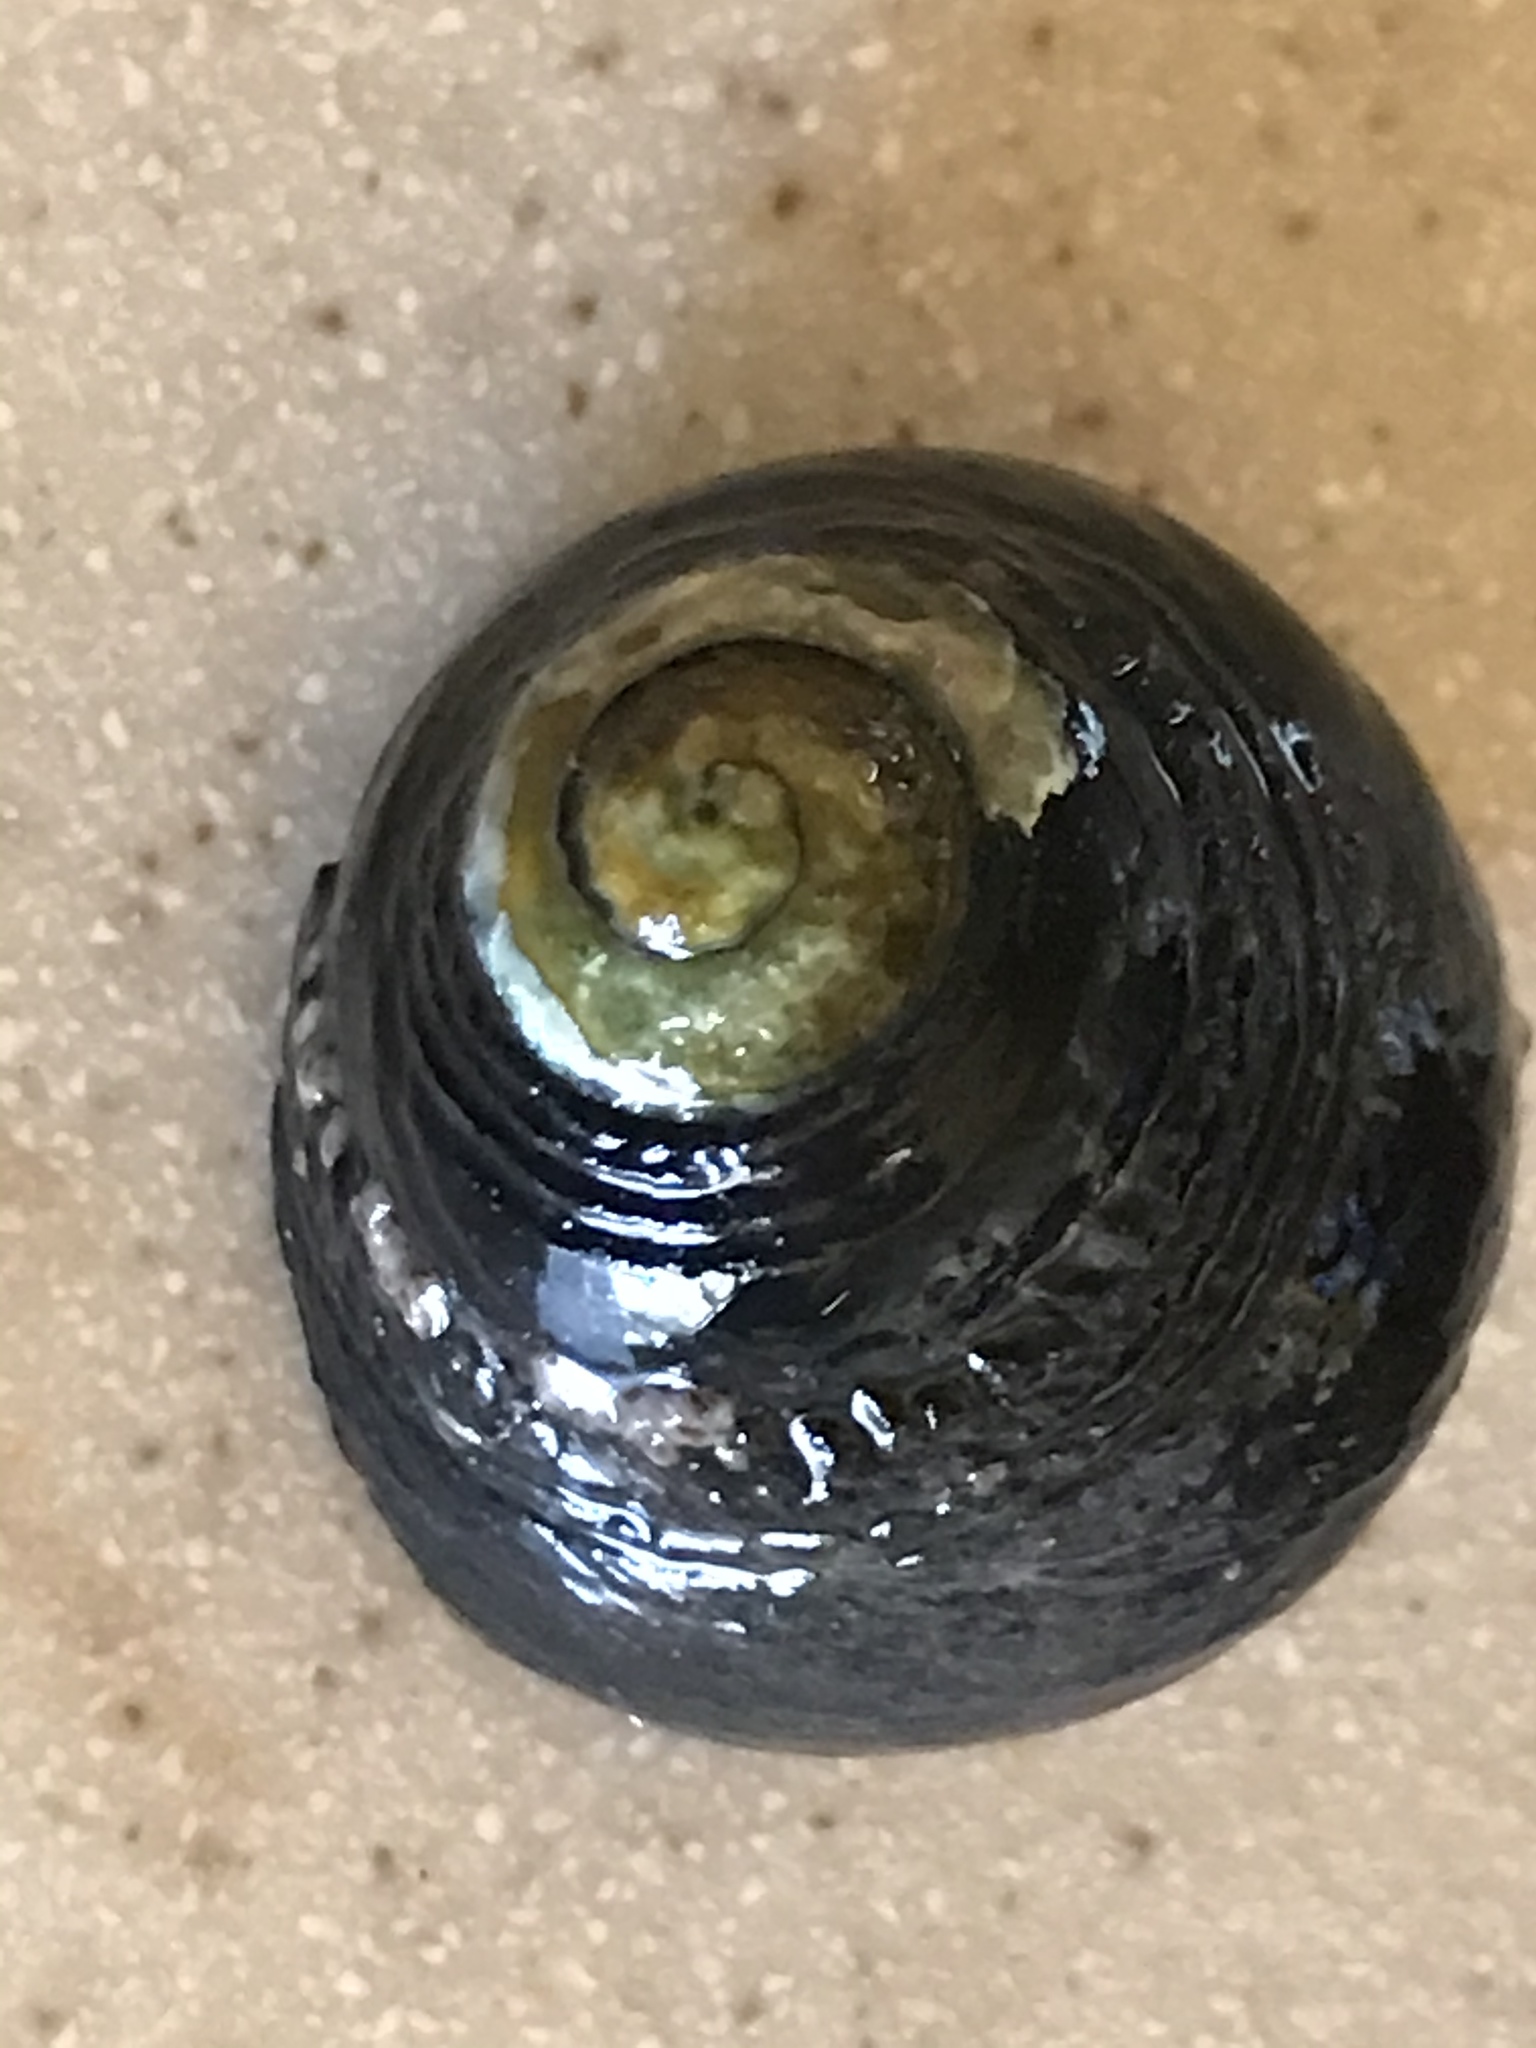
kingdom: Animalia
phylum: Mollusca
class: Gastropoda
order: Trochida
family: Tegulidae
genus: Tegula
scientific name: Tegula funebralis
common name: Black tegula
